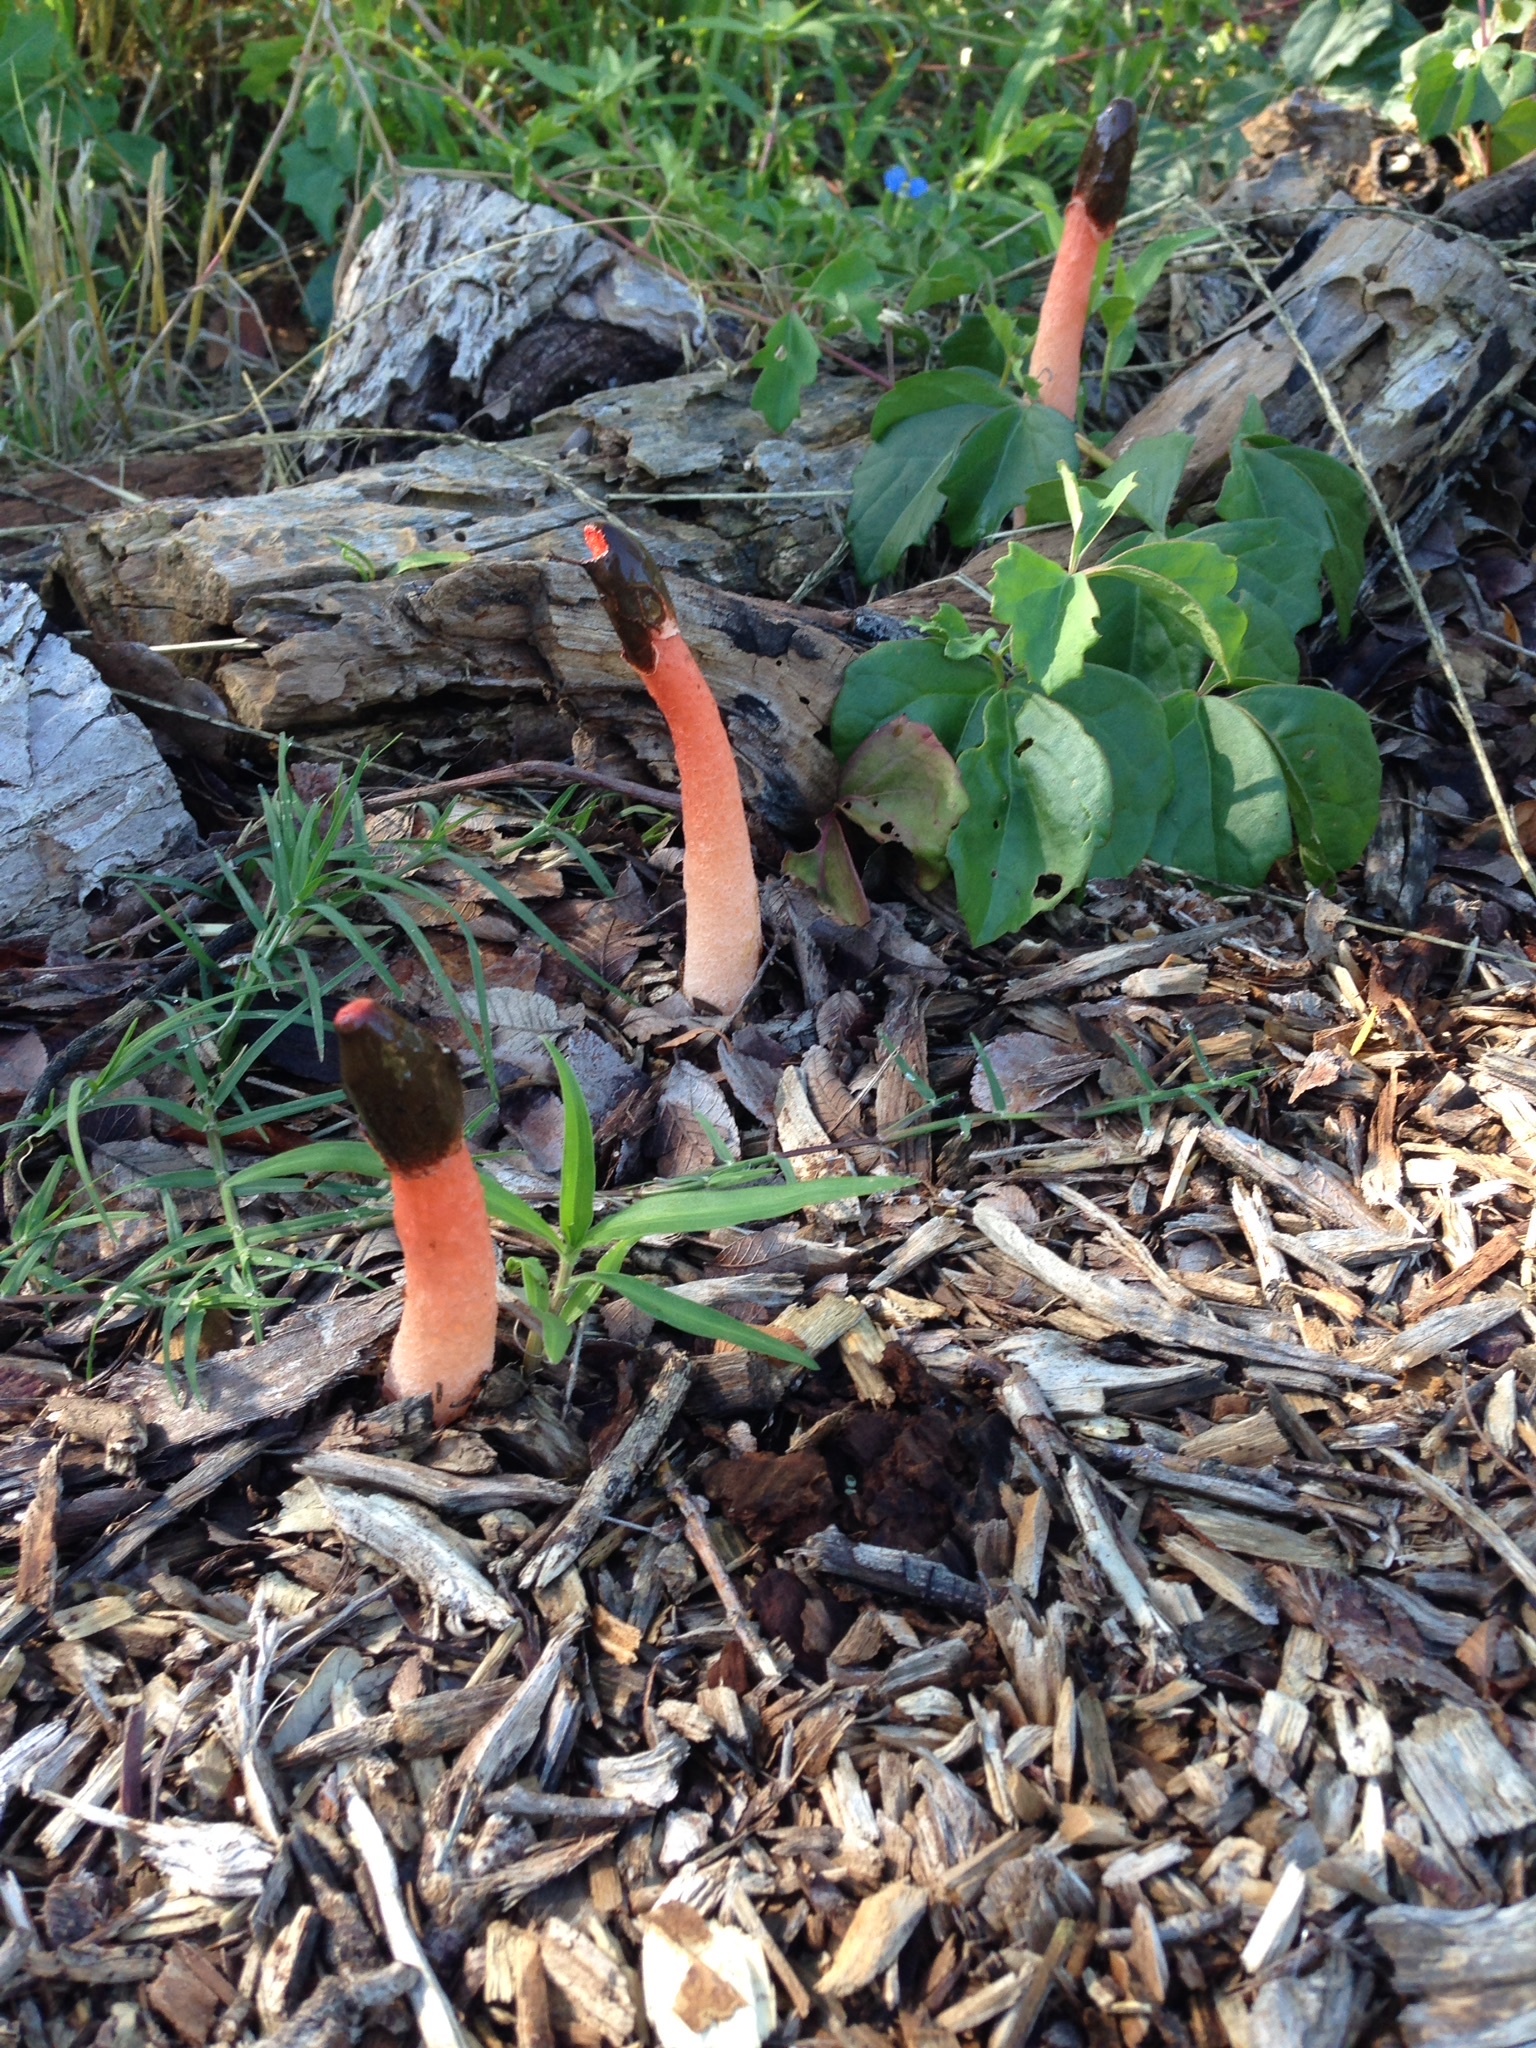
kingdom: Fungi
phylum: Basidiomycota
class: Agaricomycetes
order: Phallales
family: Phallaceae
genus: Phallus
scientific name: Phallus rugulosus
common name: Wrinkly stinkhorn
